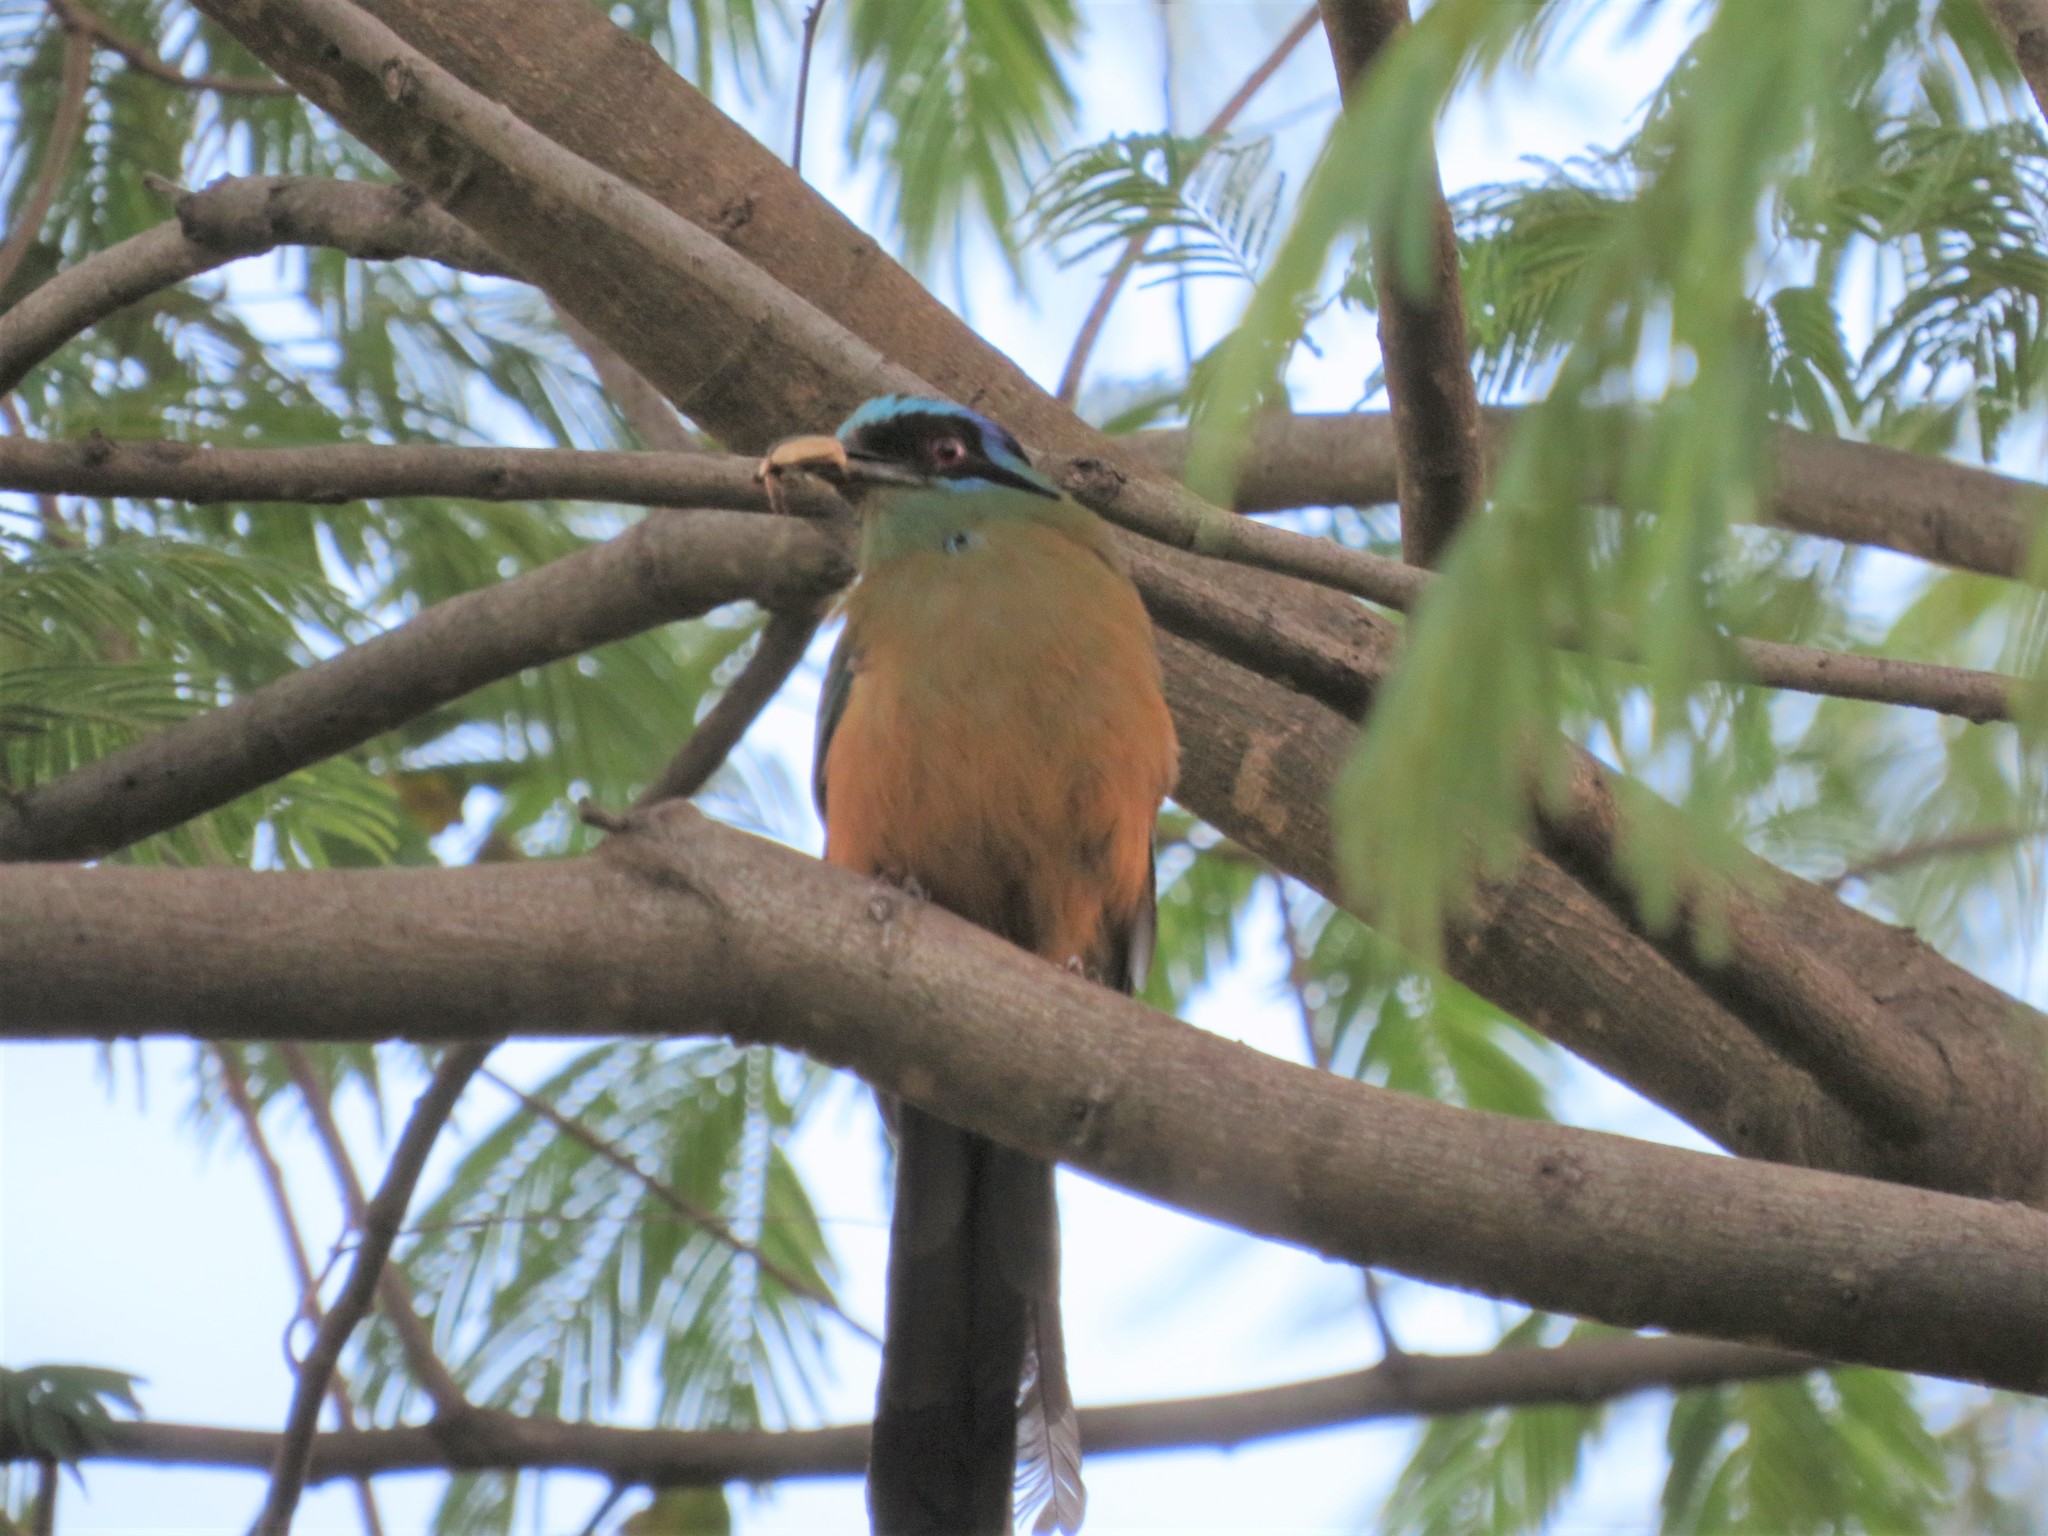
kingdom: Animalia
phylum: Chordata
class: Aves
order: Coraciiformes
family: Momotidae
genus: Momotus
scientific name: Momotus momota
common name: Amazonian motmot
